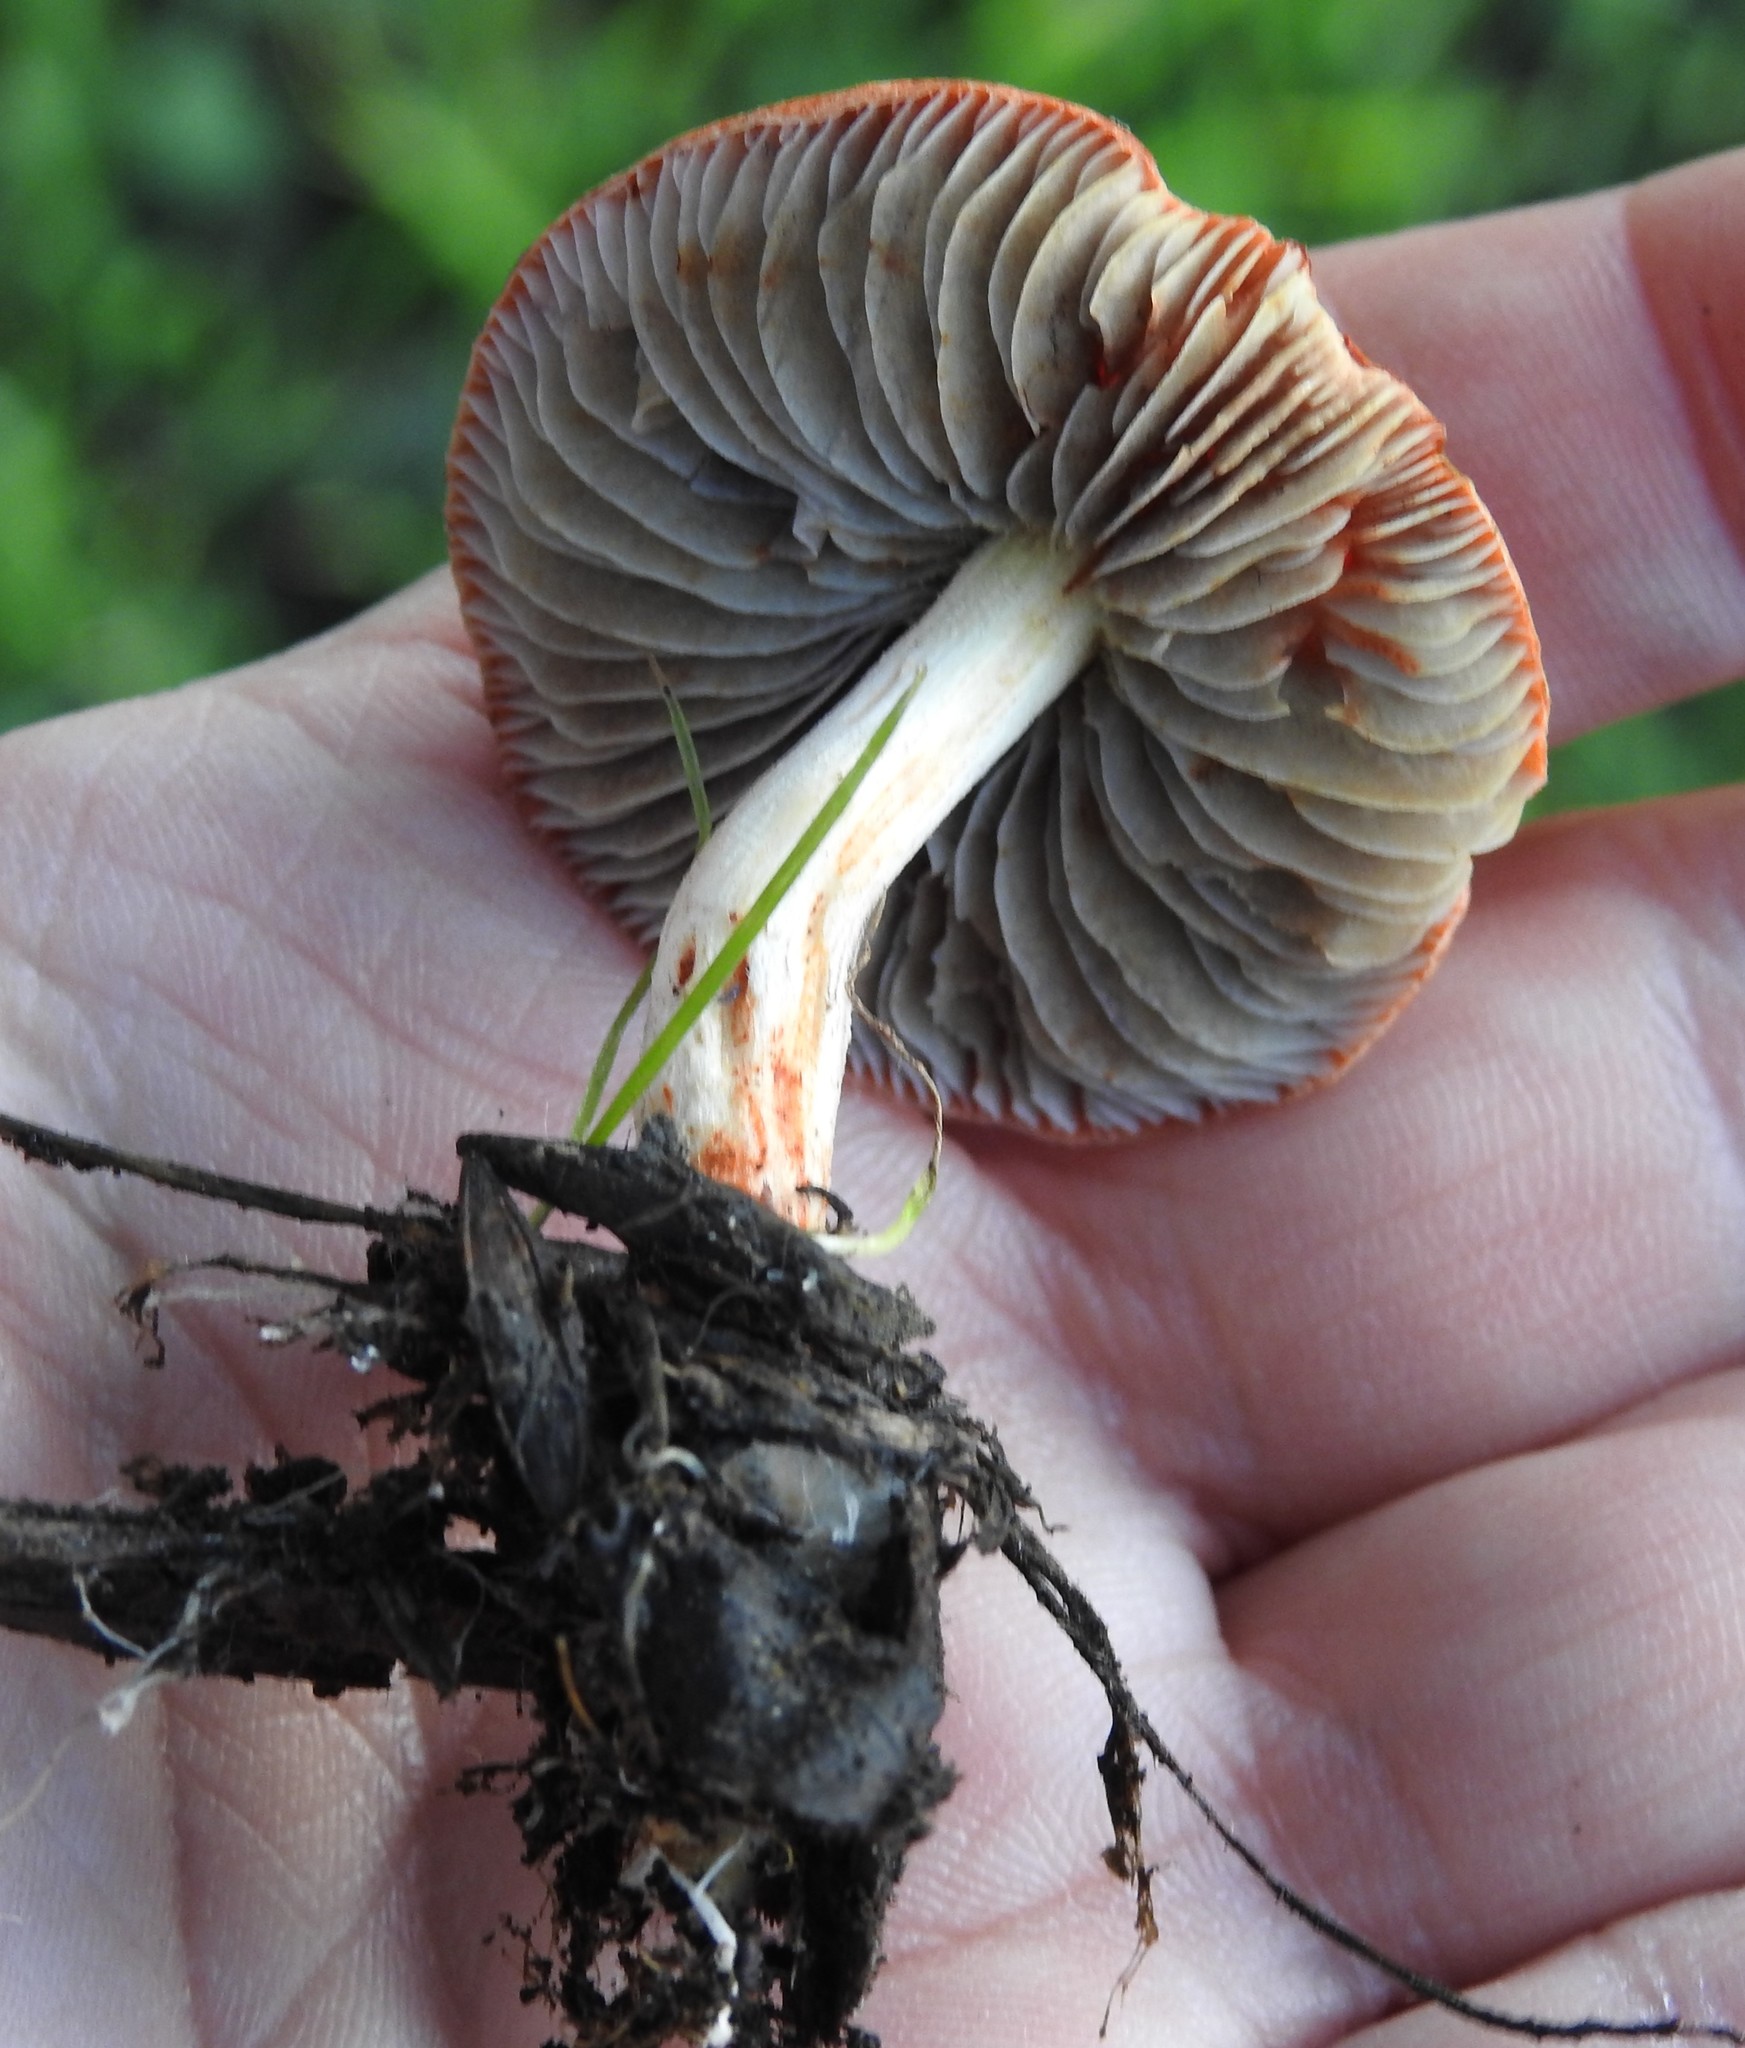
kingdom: Fungi
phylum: Basidiomycota
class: Agaricomycetes
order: Agaricales
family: Strophariaceae
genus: Leratiomyces
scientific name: Leratiomyces ceres
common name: Redlead roundhead
